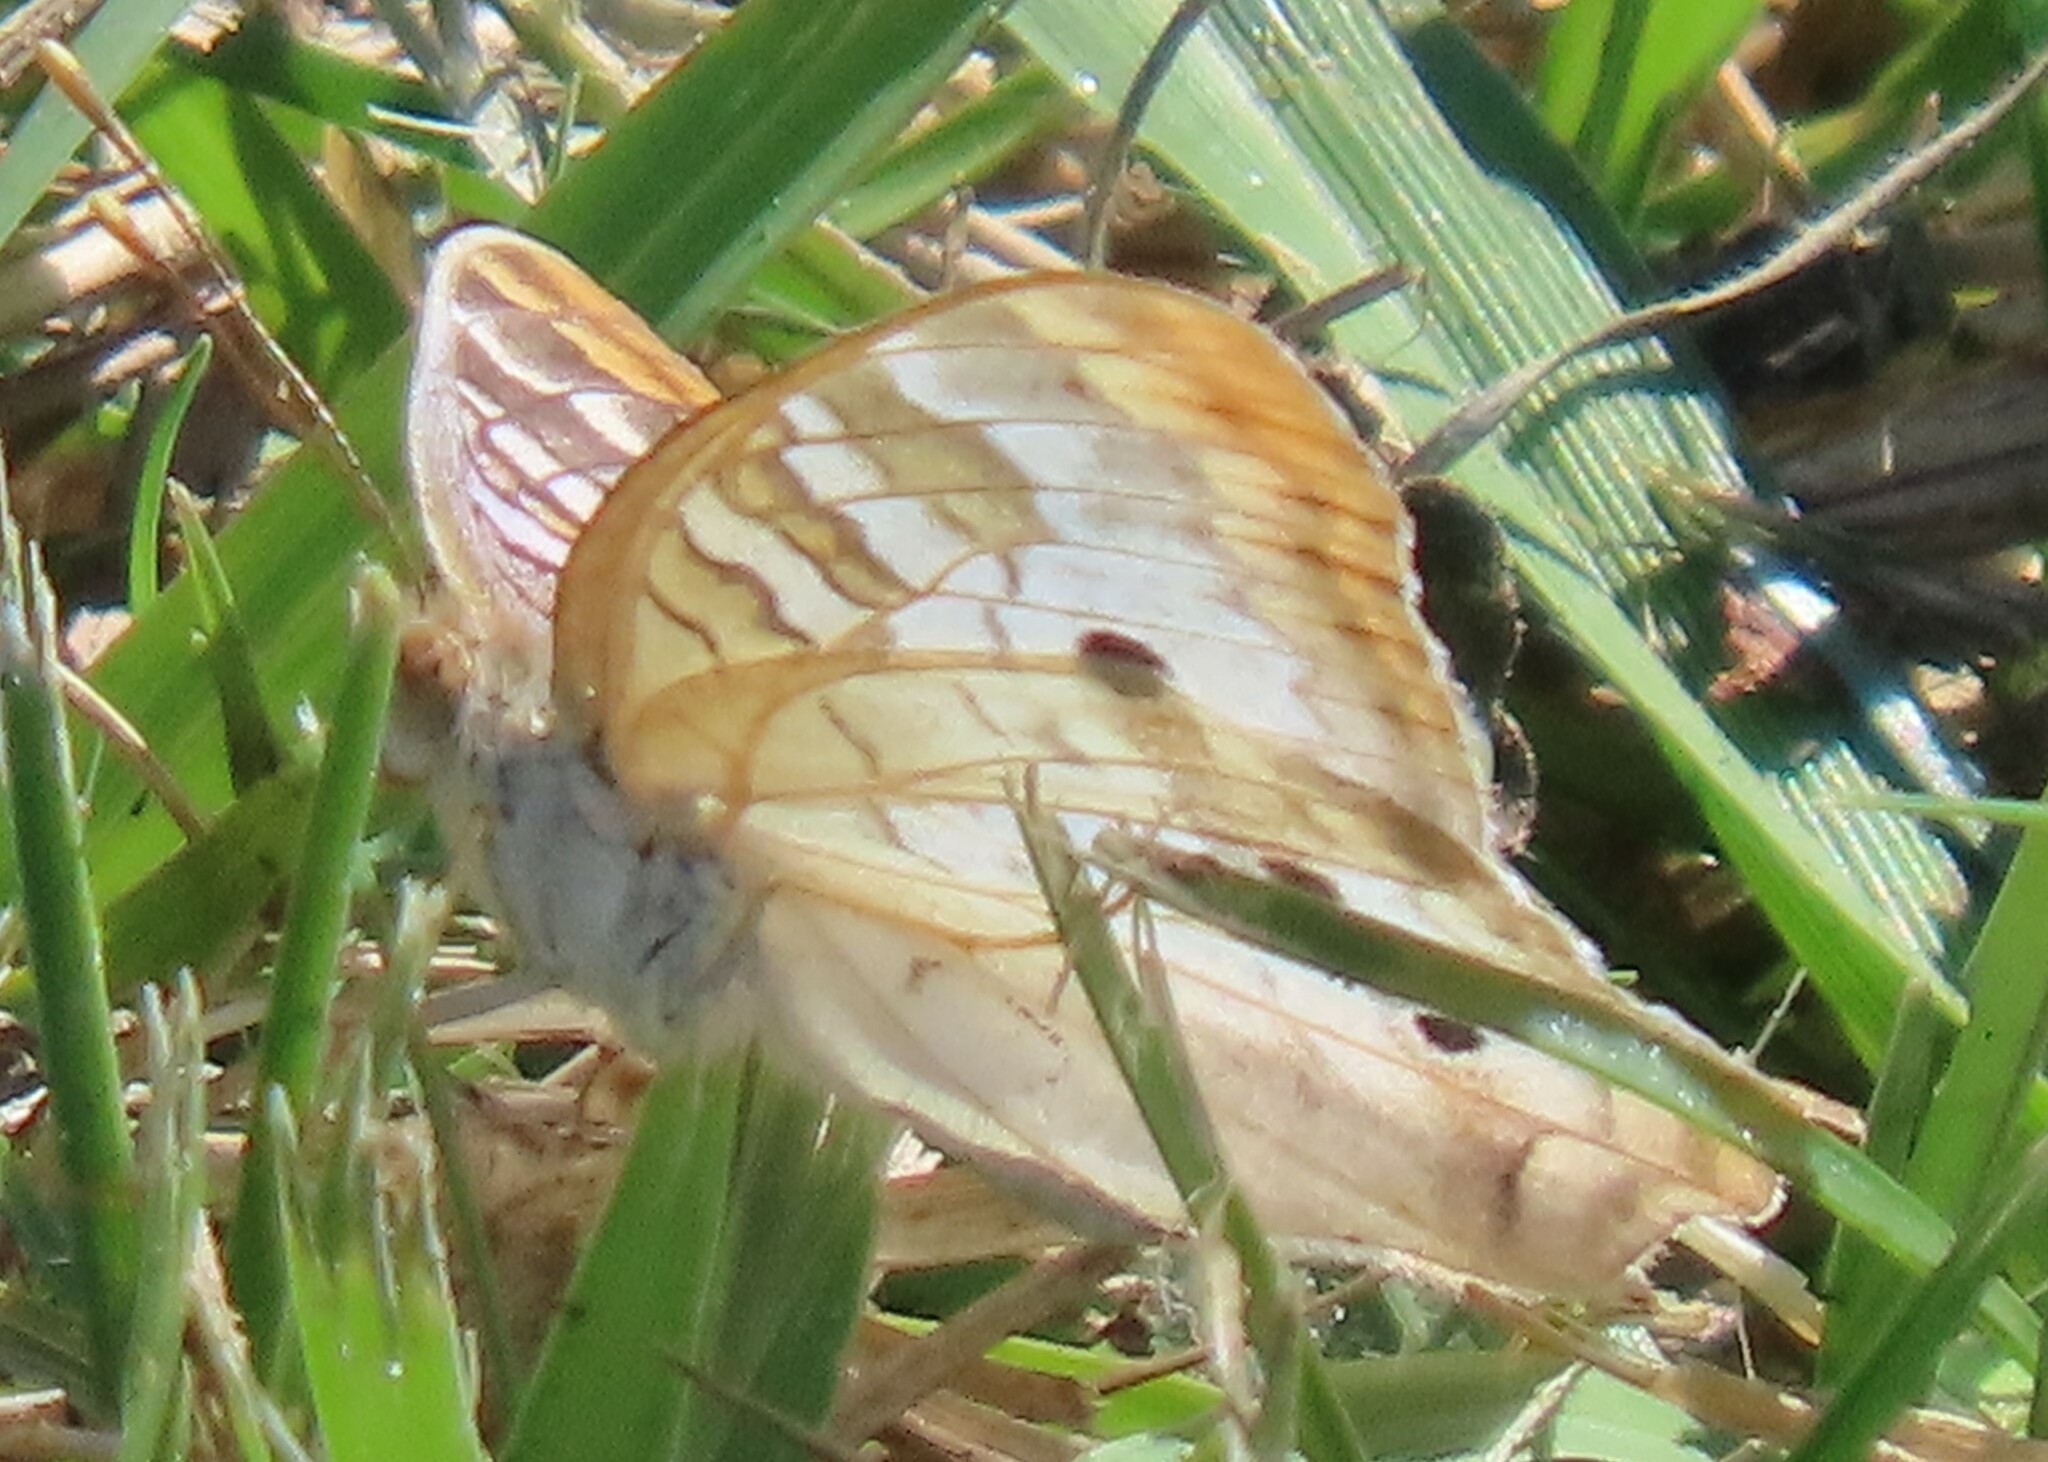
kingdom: Animalia
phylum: Arthropoda
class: Insecta
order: Lepidoptera
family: Nymphalidae
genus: Anartia
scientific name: Anartia jatrophae
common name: White peacock
